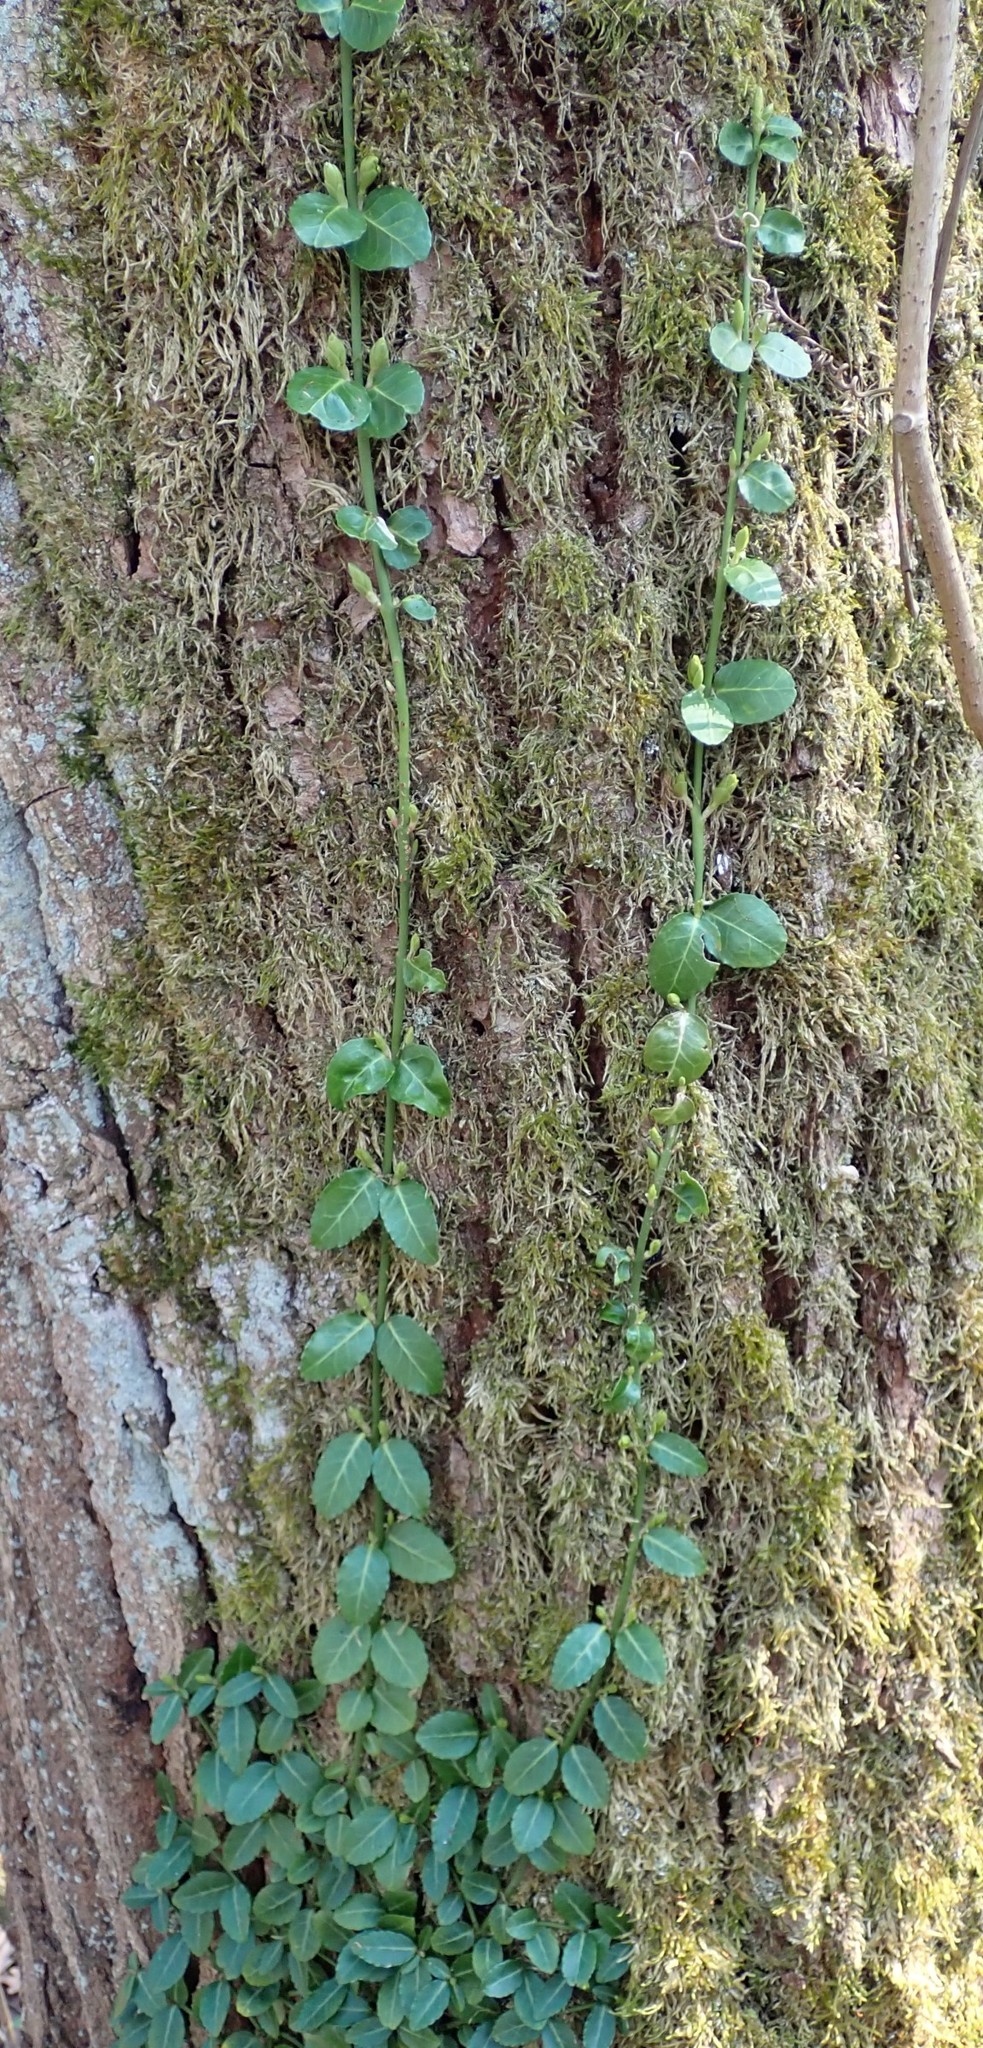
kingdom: Plantae
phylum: Tracheophyta
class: Magnoliopsida
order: Celastrales
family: Celastraceae
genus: Euonymus
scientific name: Euonymus fortunei
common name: Climbing euonymus
